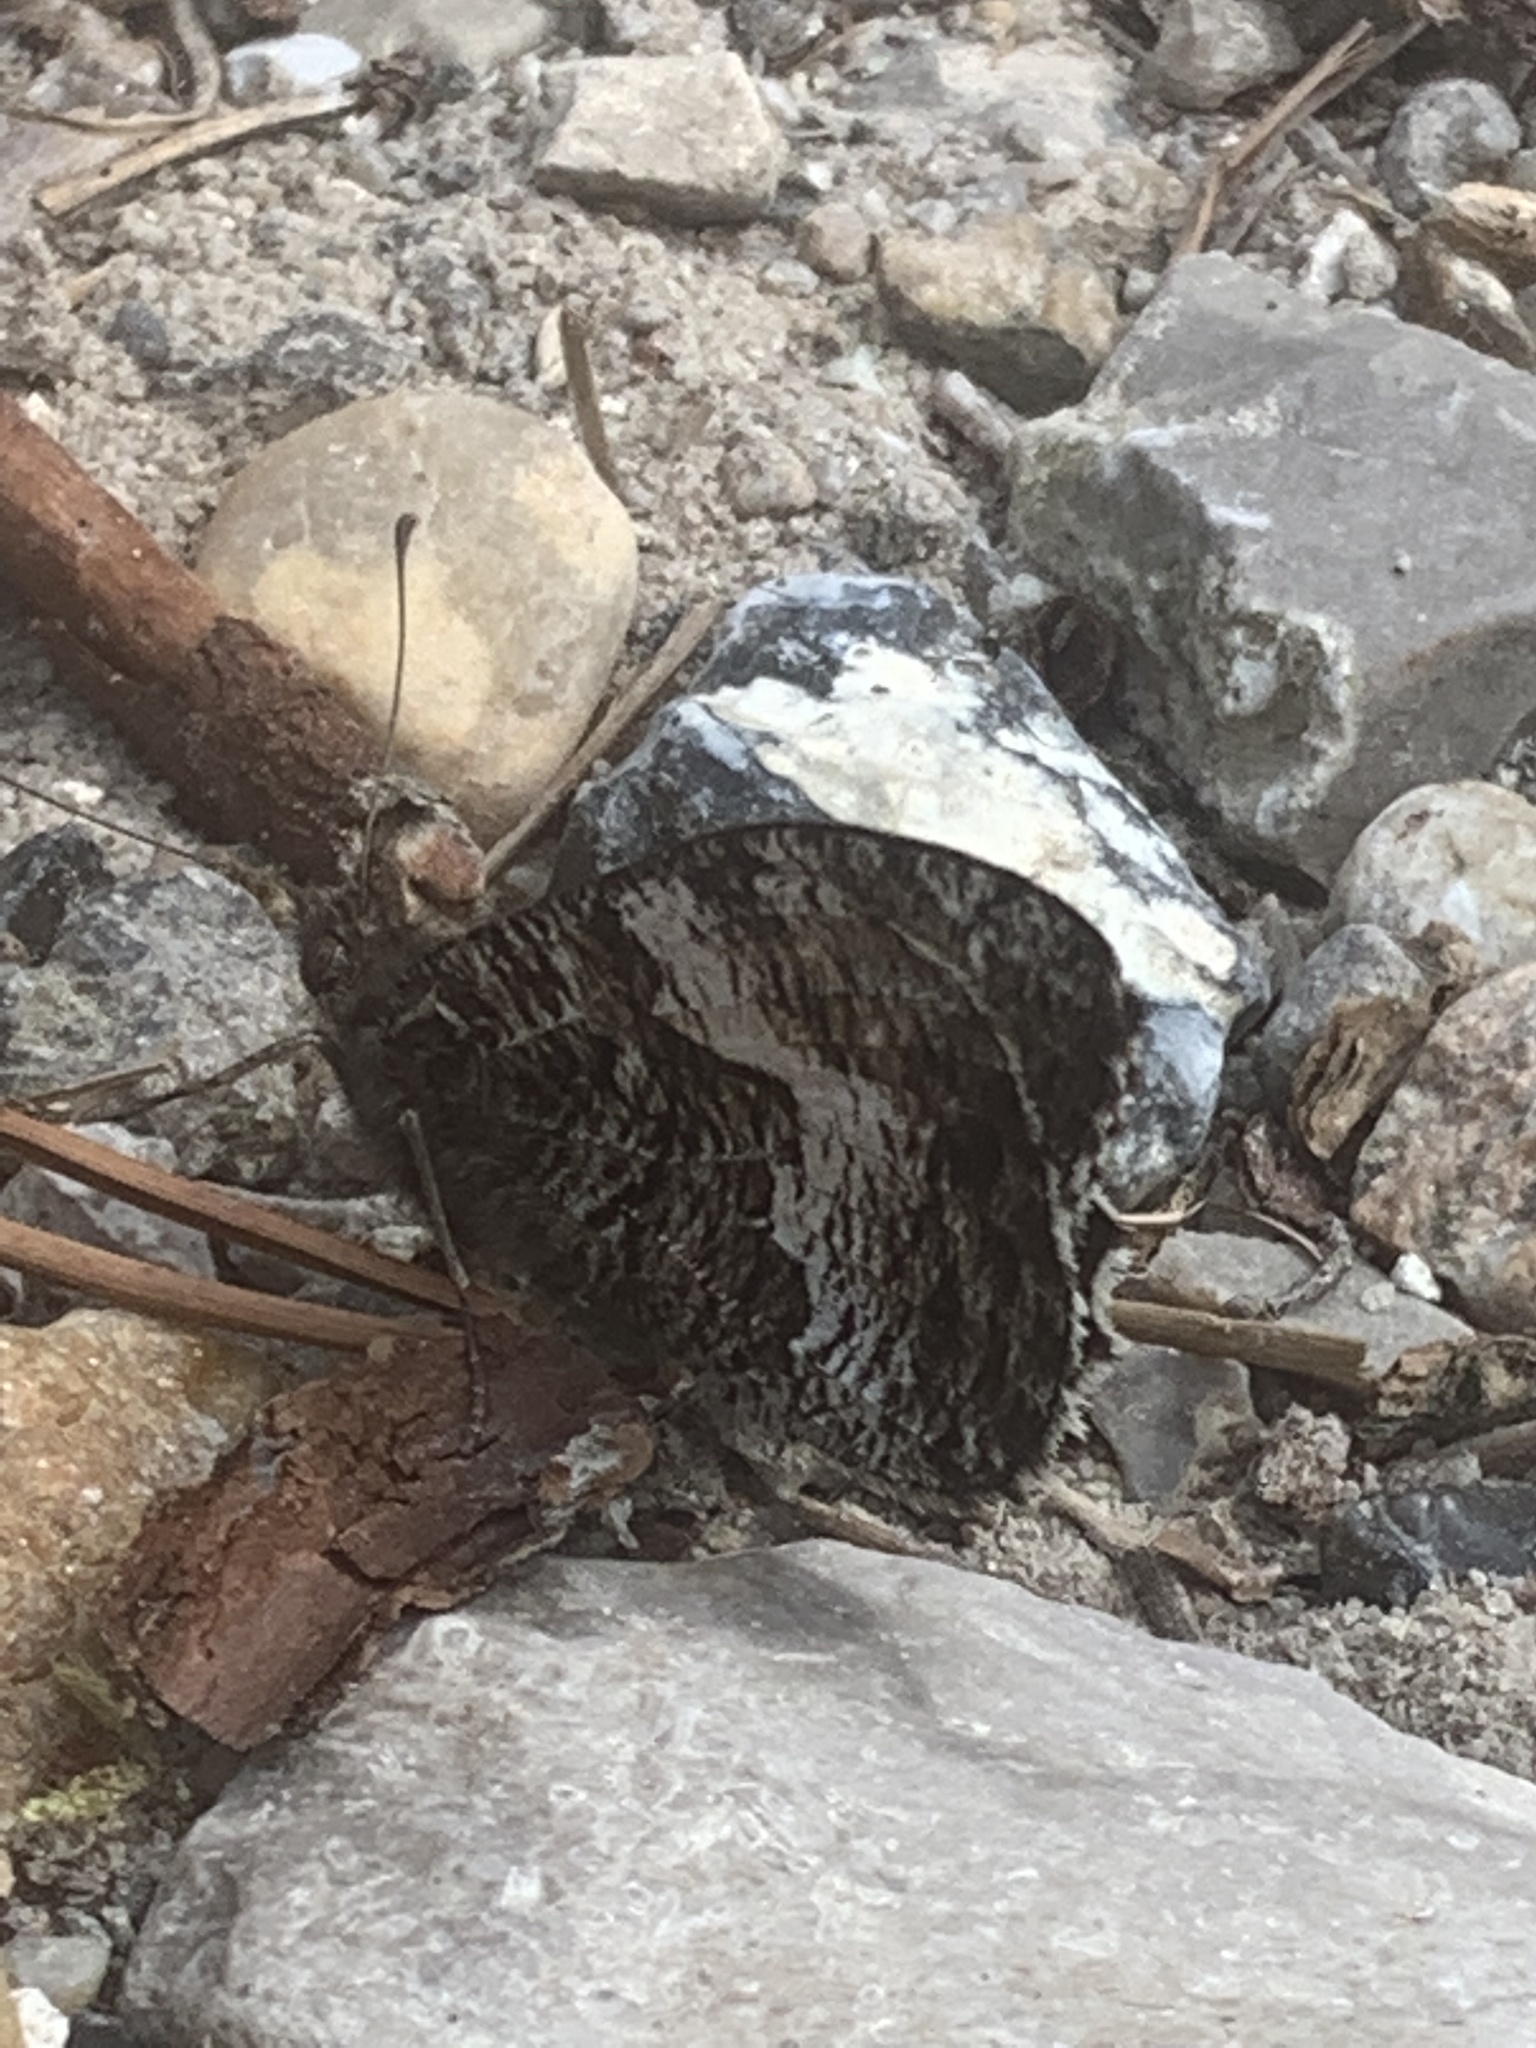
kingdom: Animalia
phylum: Arthropoda
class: Insecta
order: Lepidoptera
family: Nymphalidae
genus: Hipparchia
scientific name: Hipparchia semele
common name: Grayling
